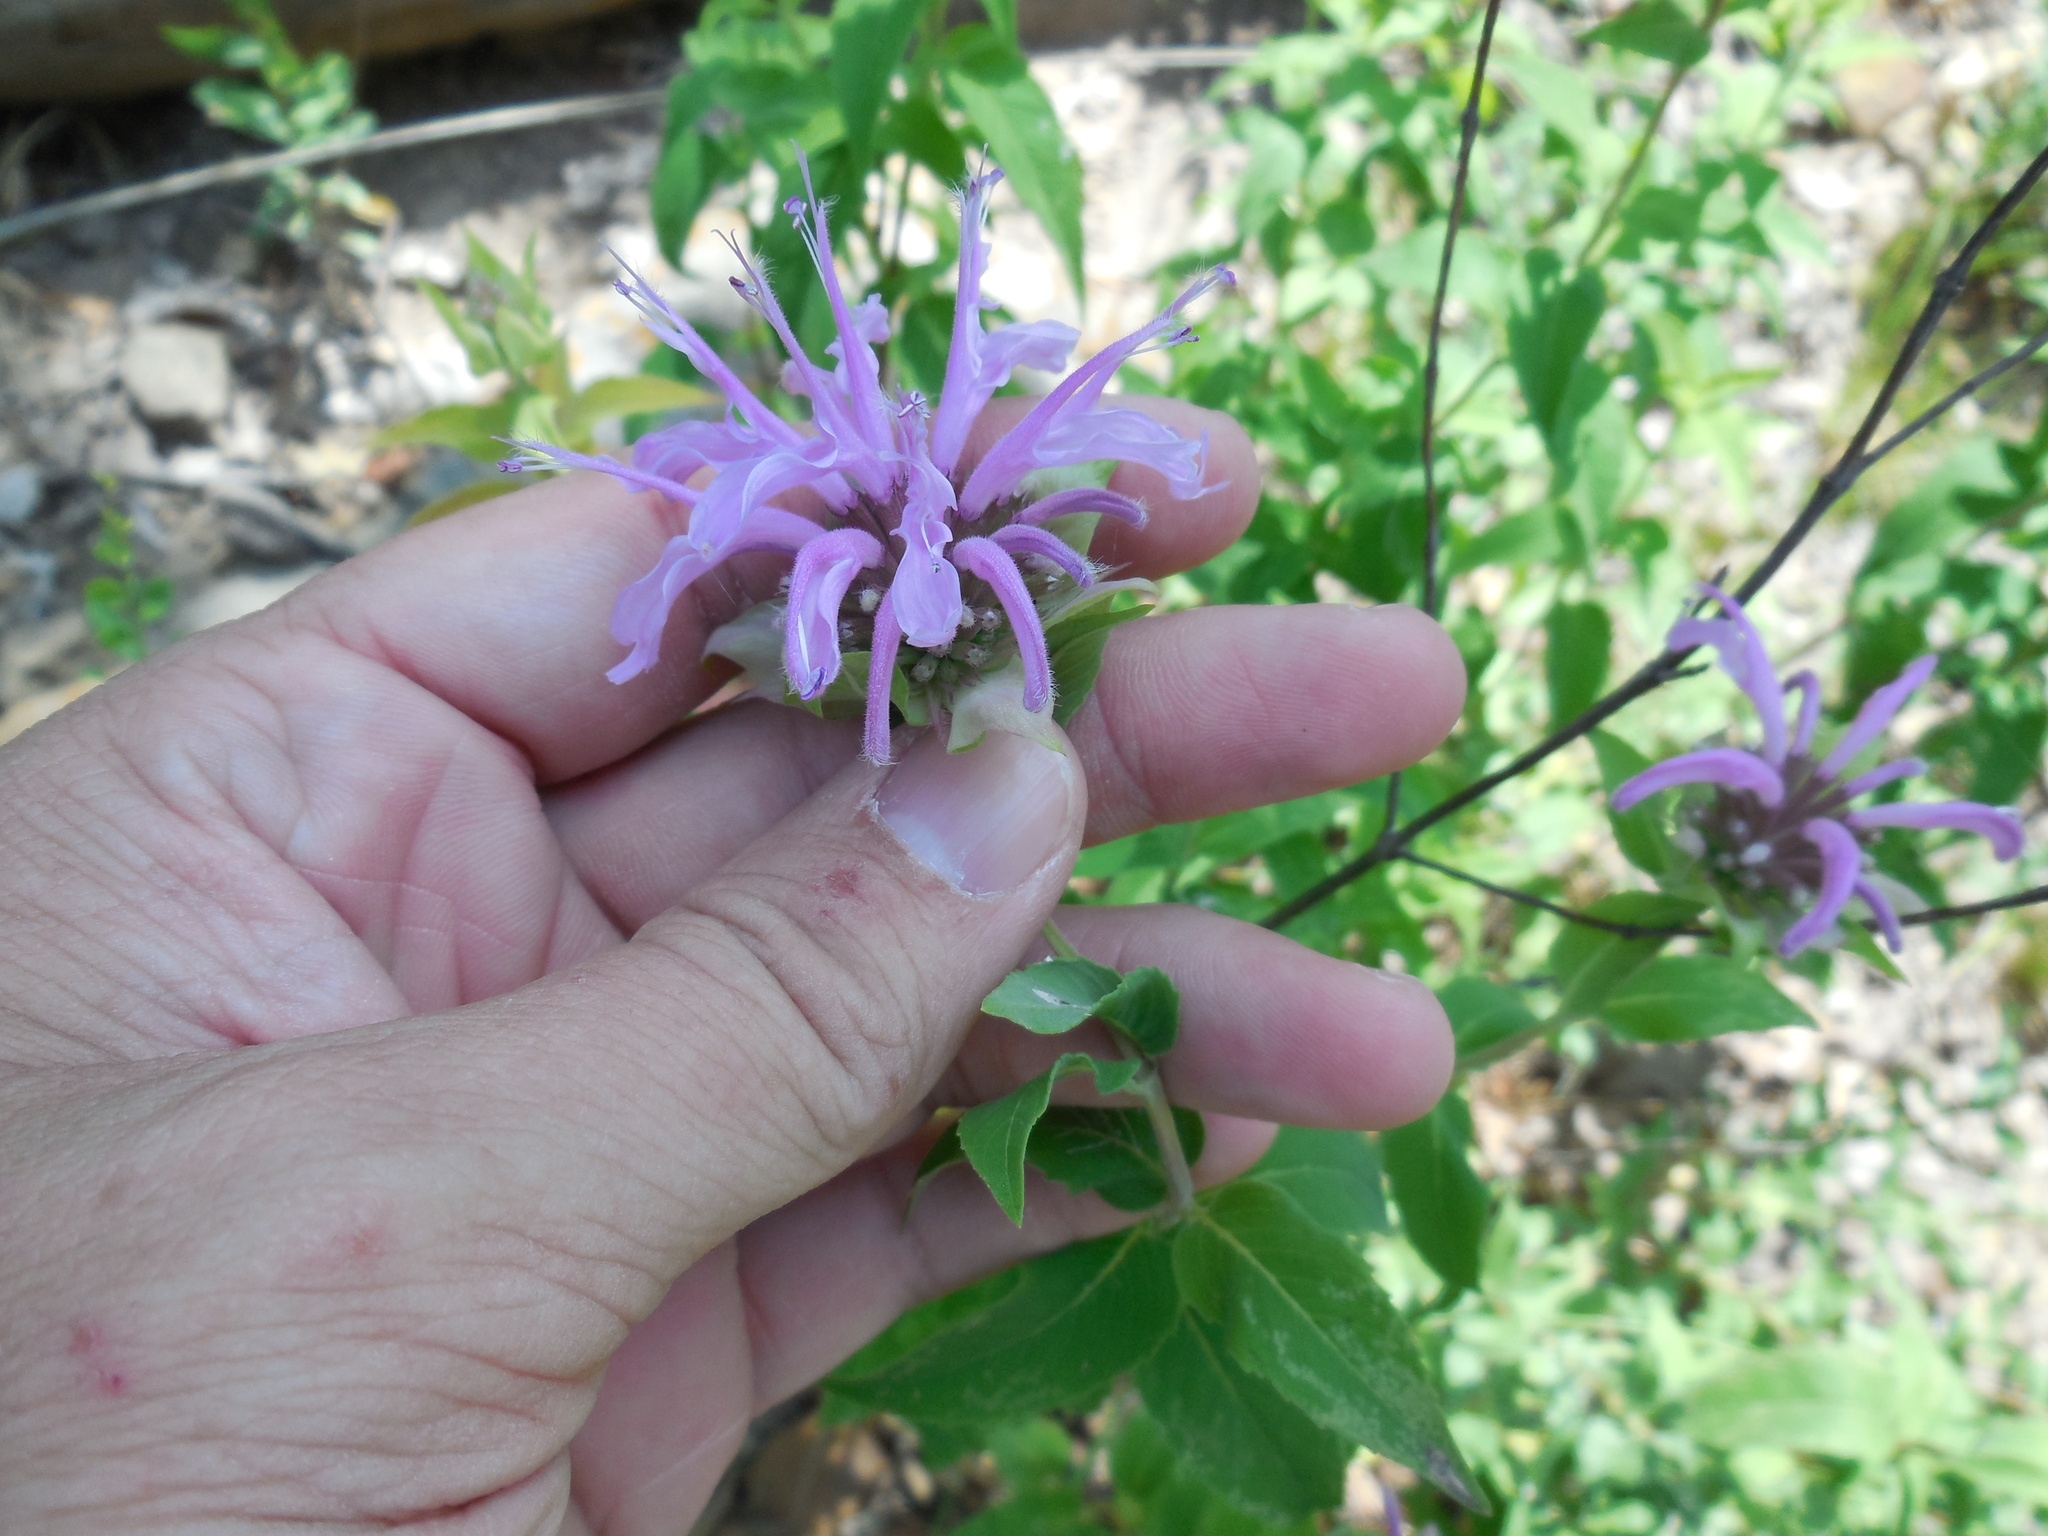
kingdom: Plantae
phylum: Tracheophyta
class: Magnoliopsida
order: Lamiales
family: Lamiaceae
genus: Monarda
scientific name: Monarda fistulosa
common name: Purple beebalm
